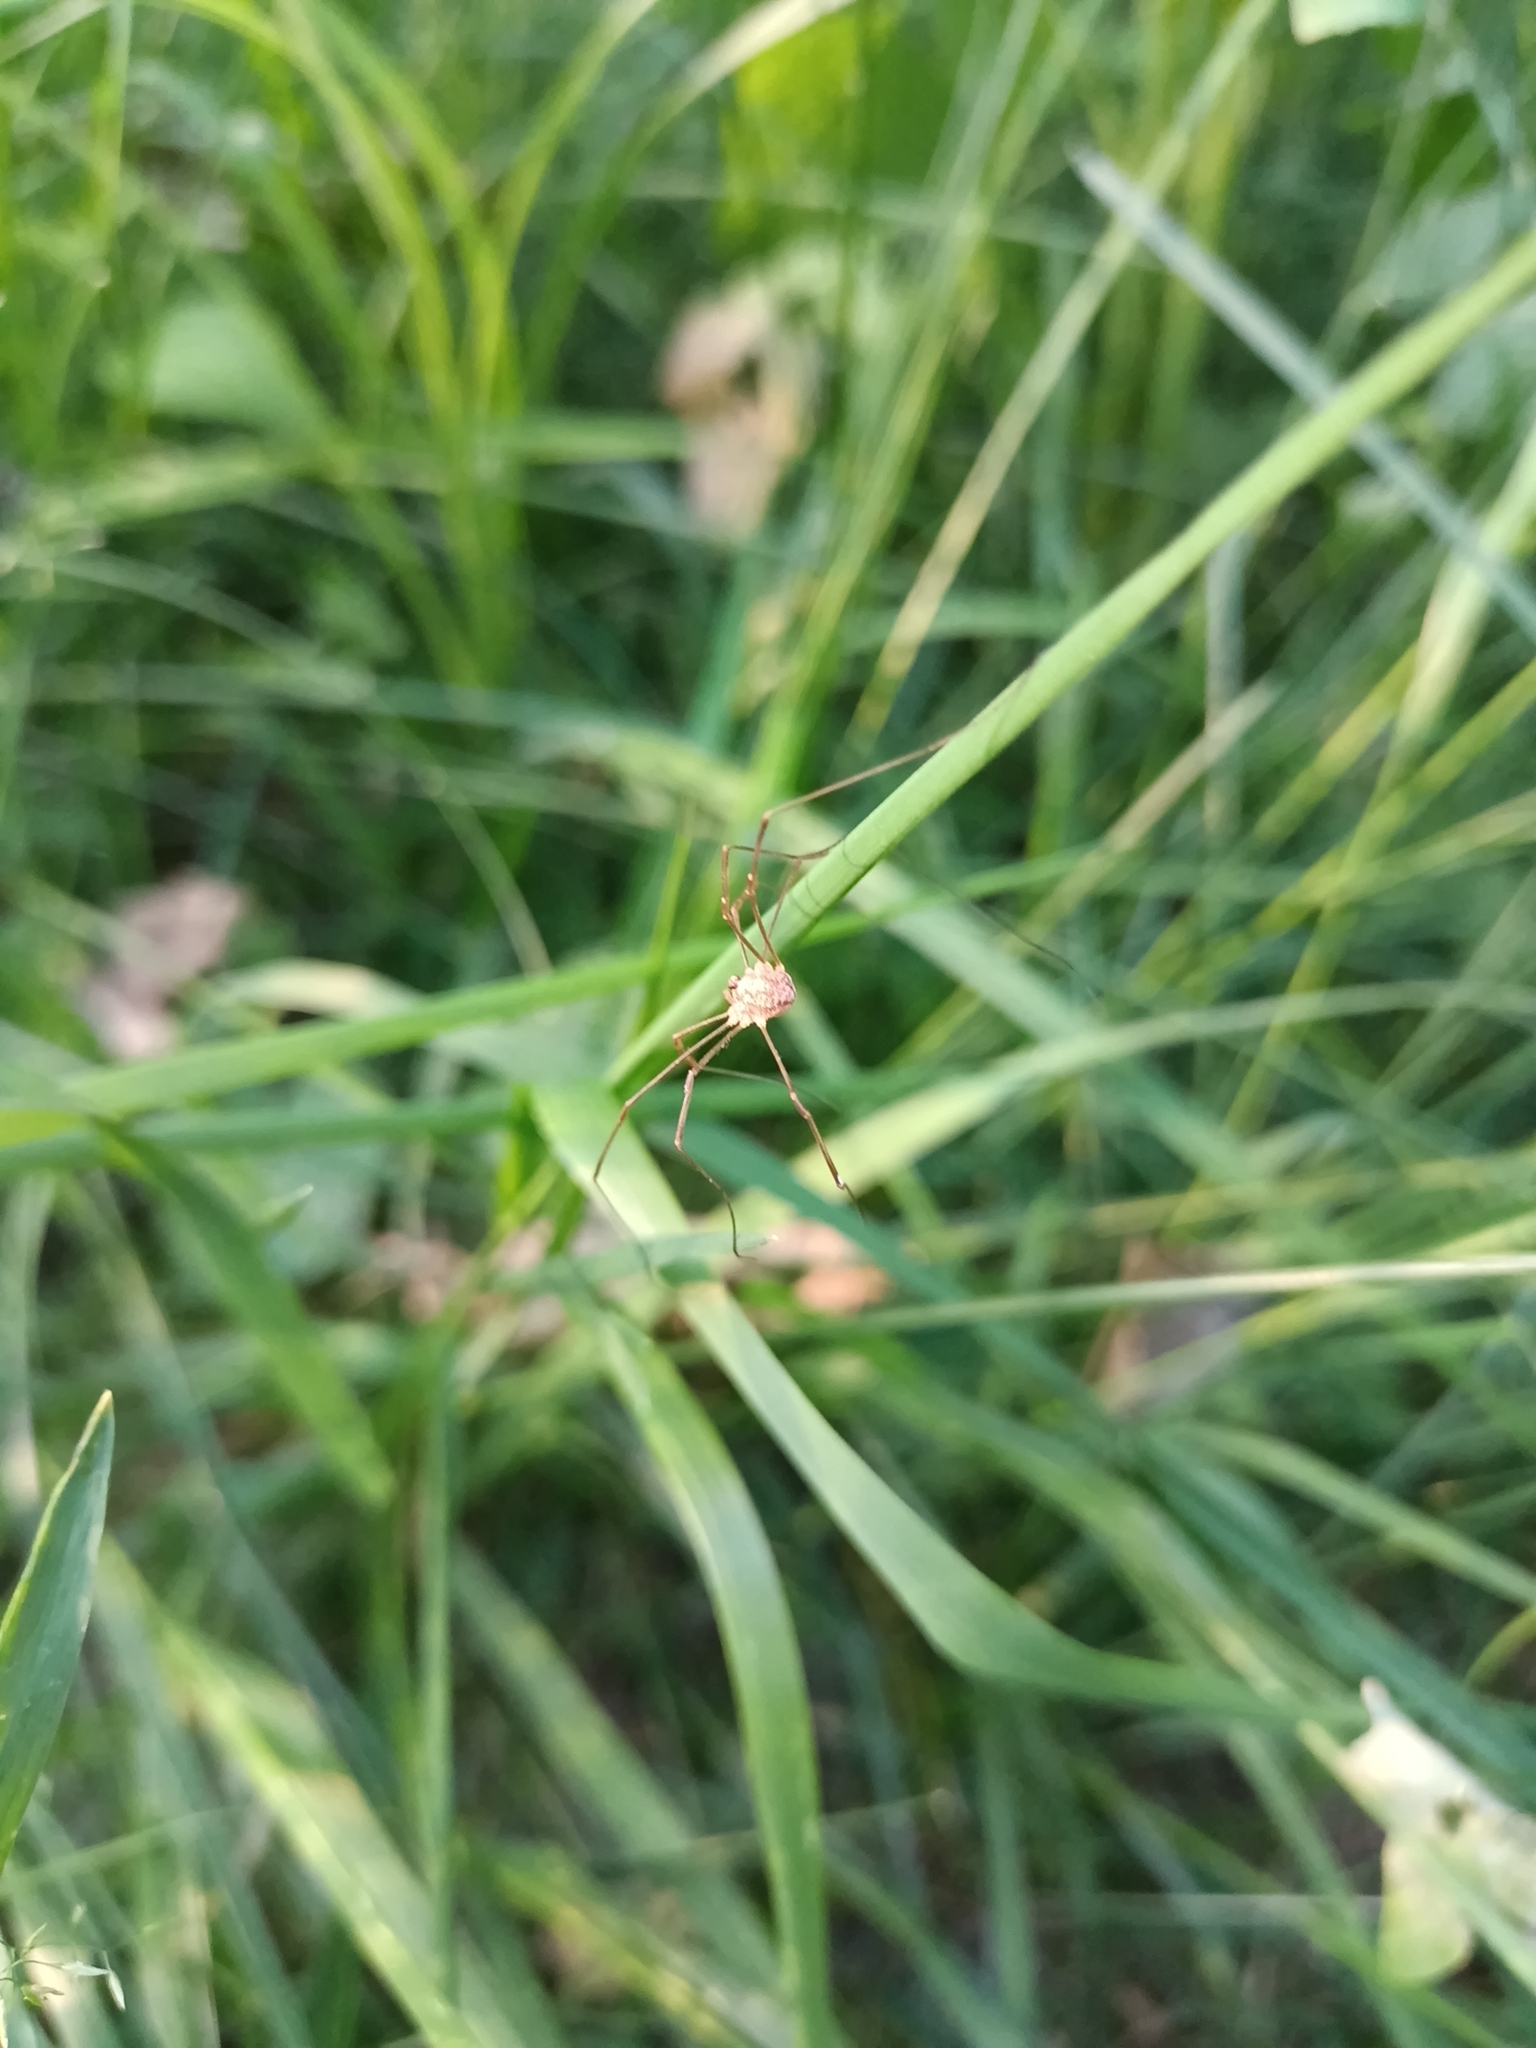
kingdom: Animalia
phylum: Arthropoda
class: Arachnida
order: Opiliones
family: Phalangiidae
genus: Rilaena
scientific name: Rilaena triangularis
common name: Spring harvestman
